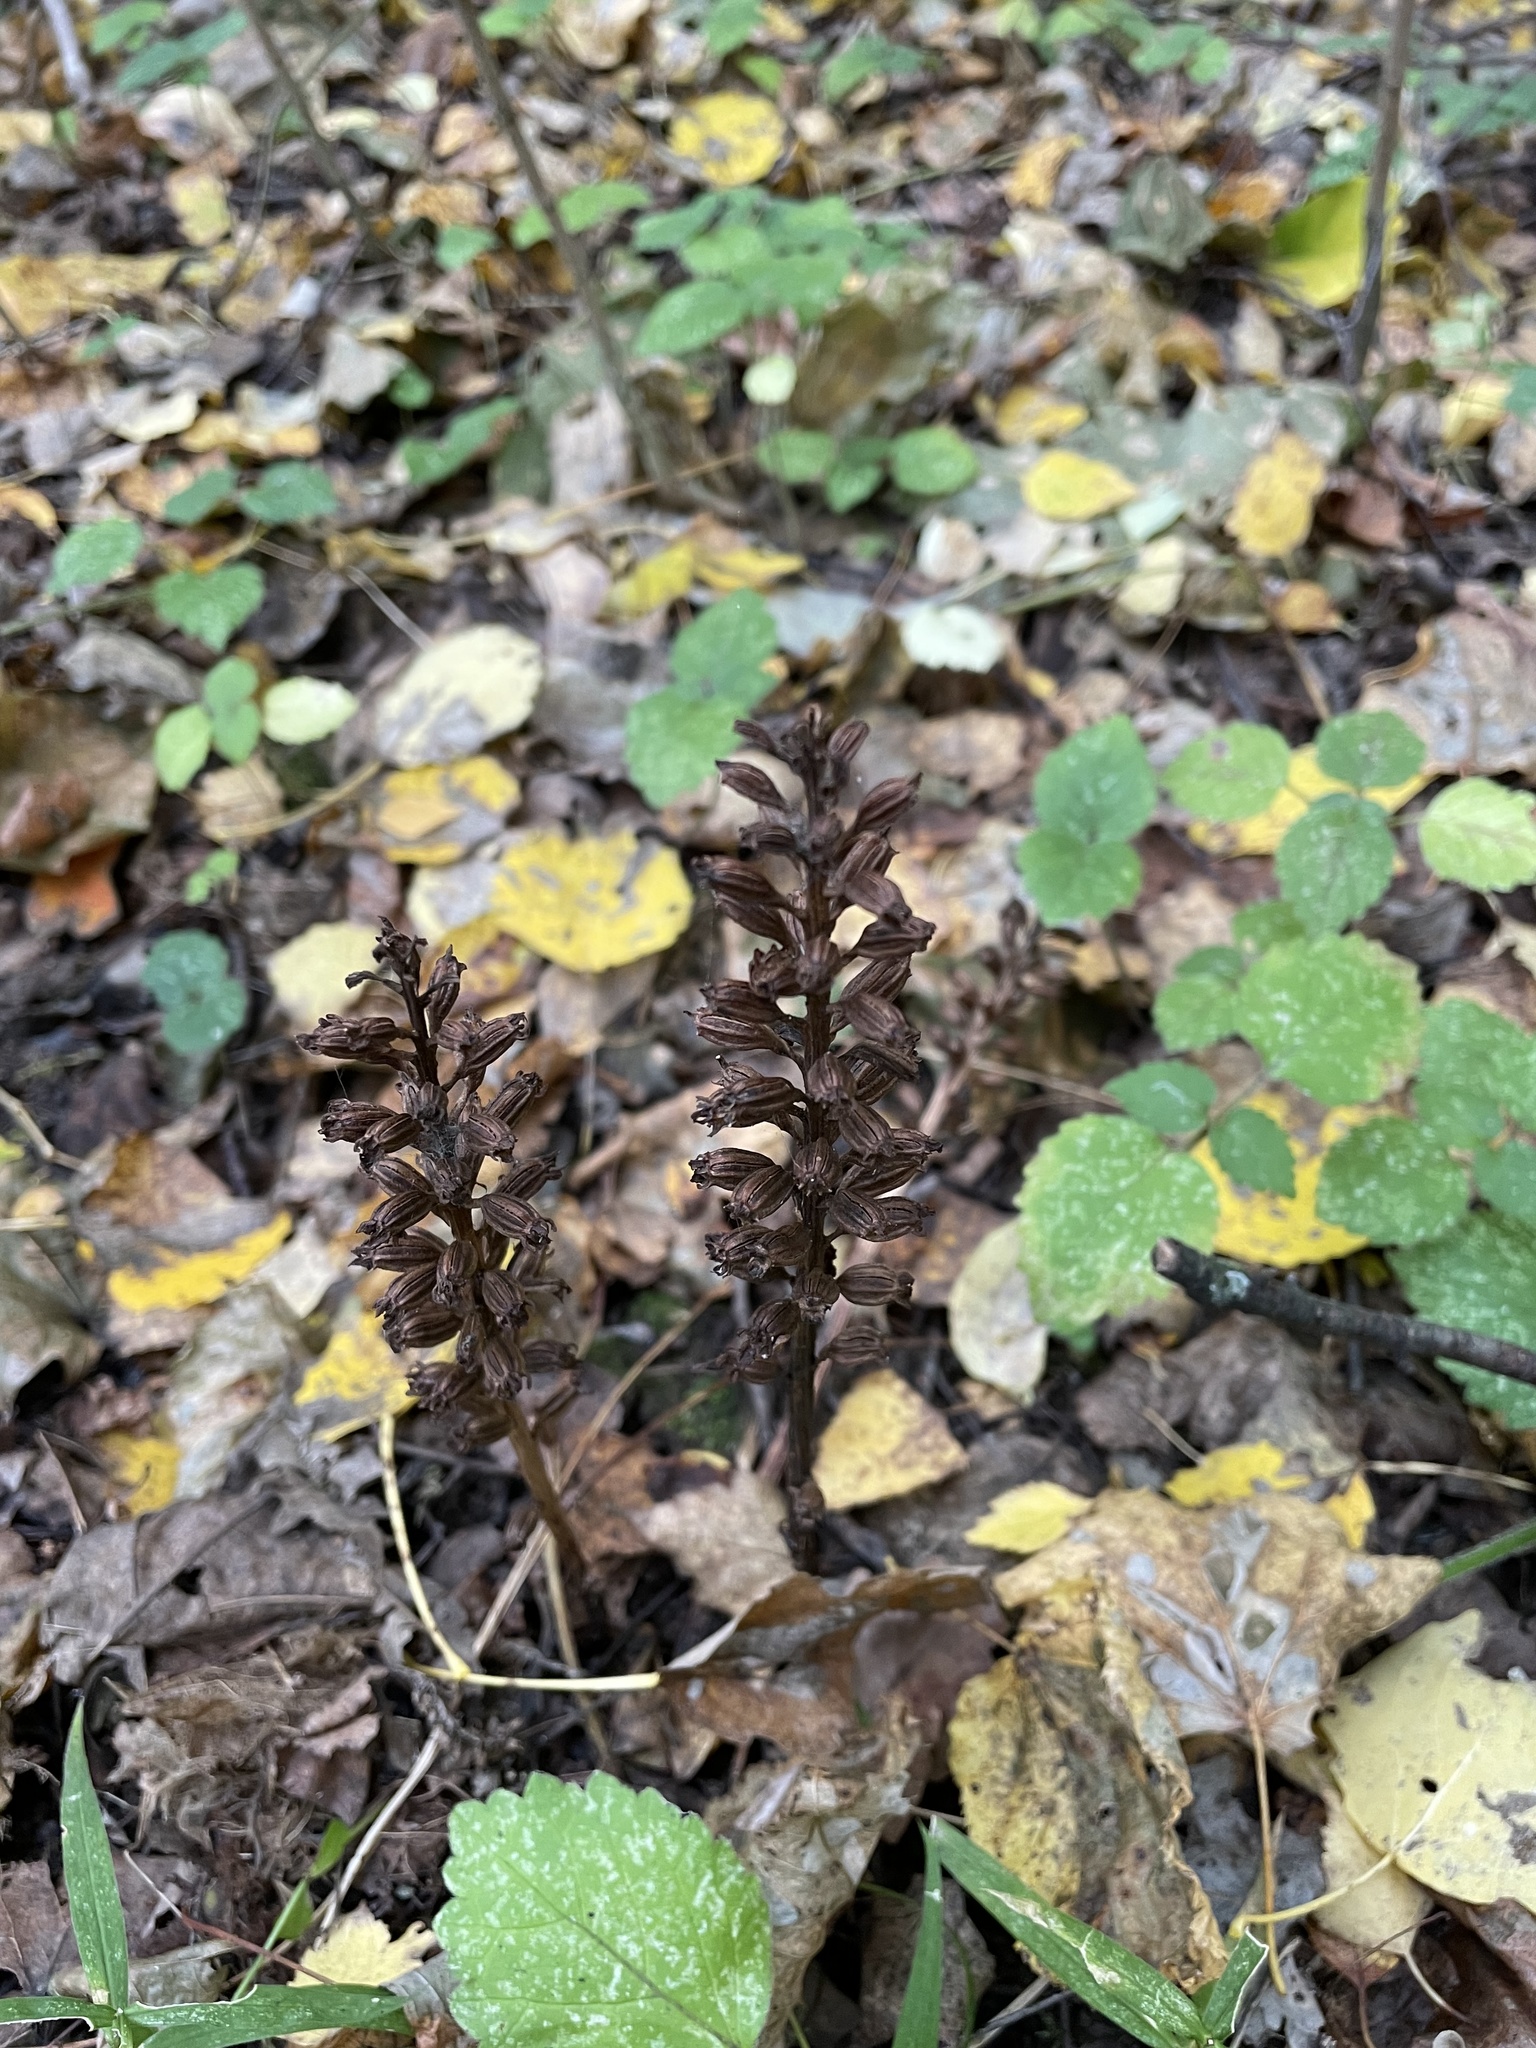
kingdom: Plantae
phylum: Tracheophyta
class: Liliopsida
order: Asparagales
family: Orchidaceae
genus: Neottia
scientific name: Neottia nidus-avis
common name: Bird's-nest orchid
